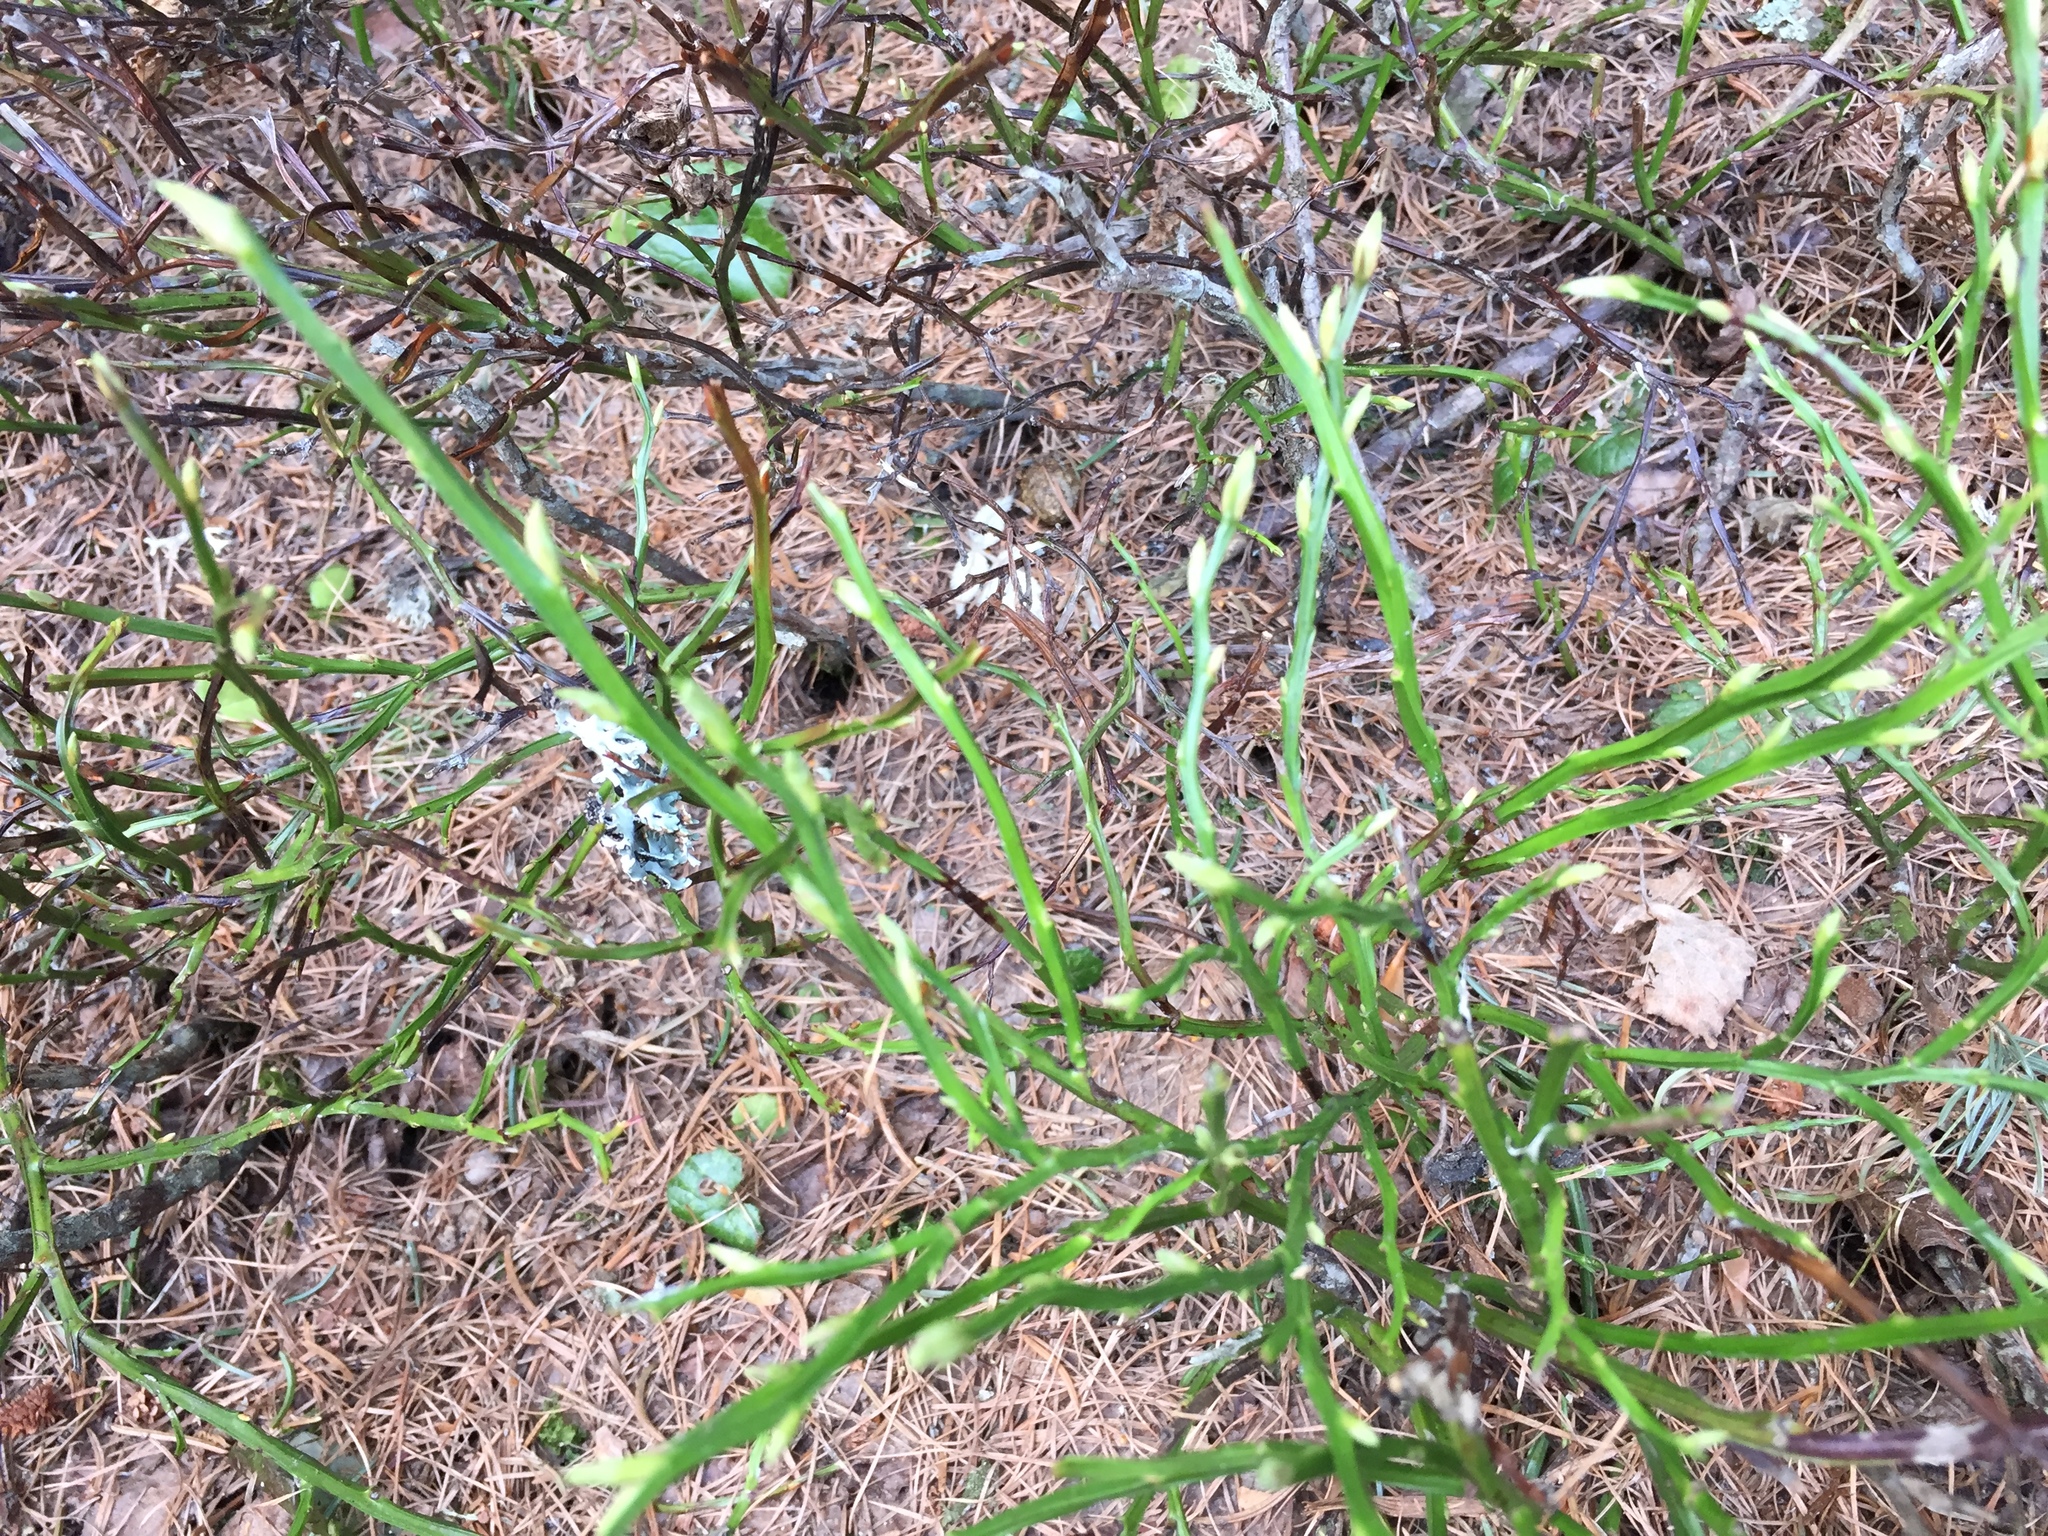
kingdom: Plantae
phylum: Tracheophyta
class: Magnoliopsida
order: Ericales
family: Ericaceae
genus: Vaccinium
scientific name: Vaccinium myrtillus
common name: Bilberry
